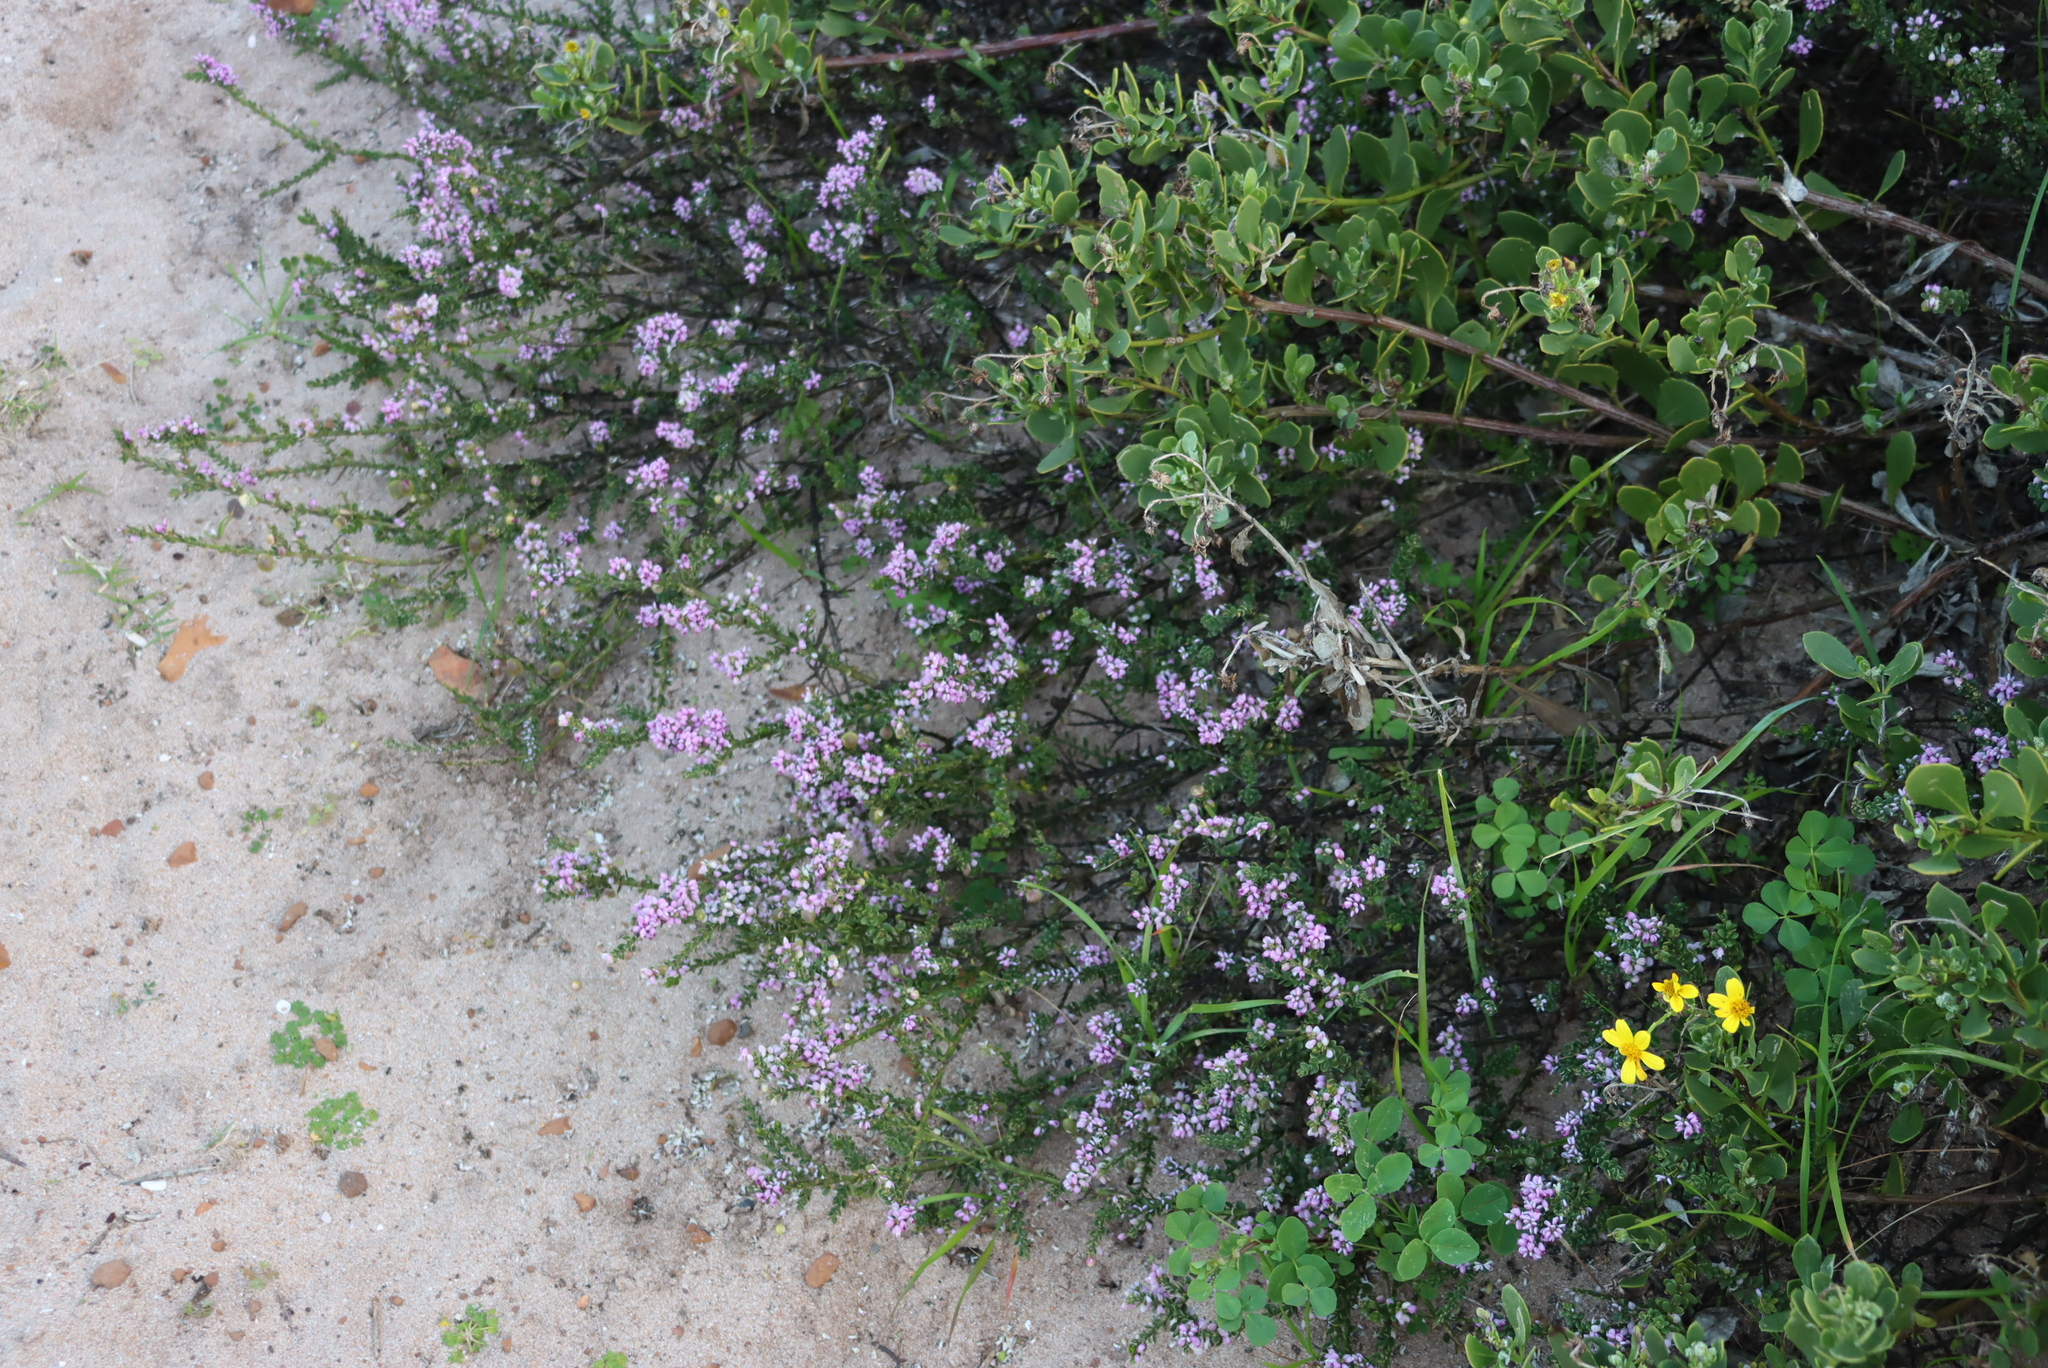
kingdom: Plantae
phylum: Tracheophyta
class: Magnoliopsida
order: Fabales
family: Polygalaceae
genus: Muraltia
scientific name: Muraltia spinosa
